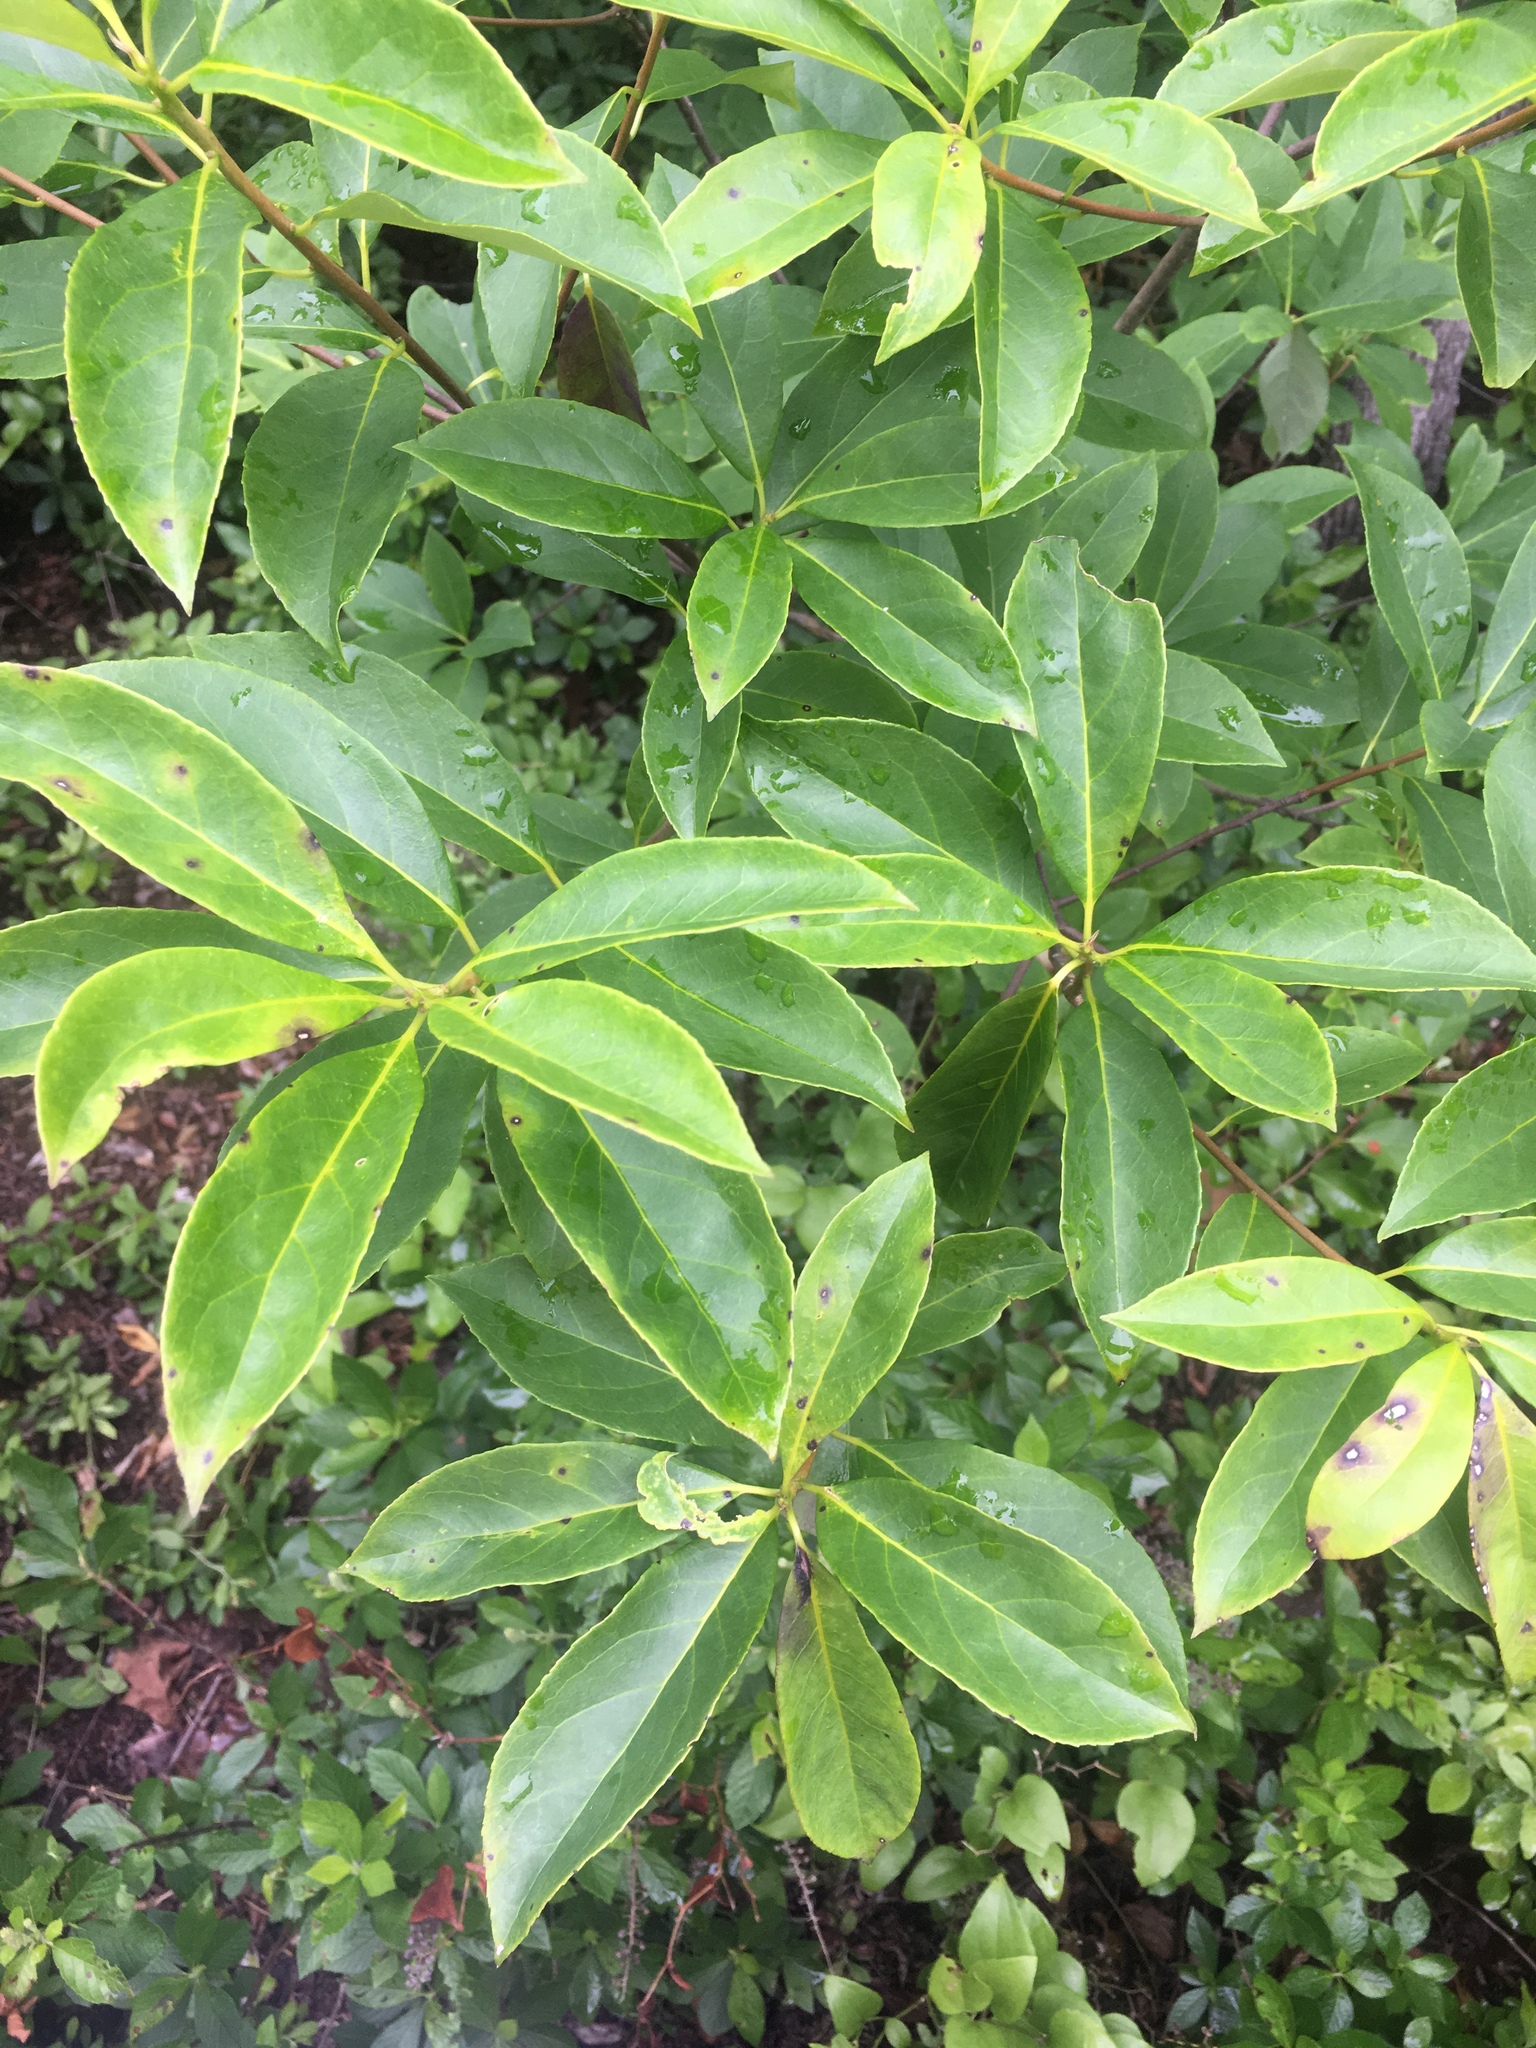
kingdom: Plantae
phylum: Tracheophyta
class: Magnoliopsida
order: Ericales
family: Symplocaceae
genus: Symplocos
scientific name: Symplocos tinctoria
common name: Horse-sugar
